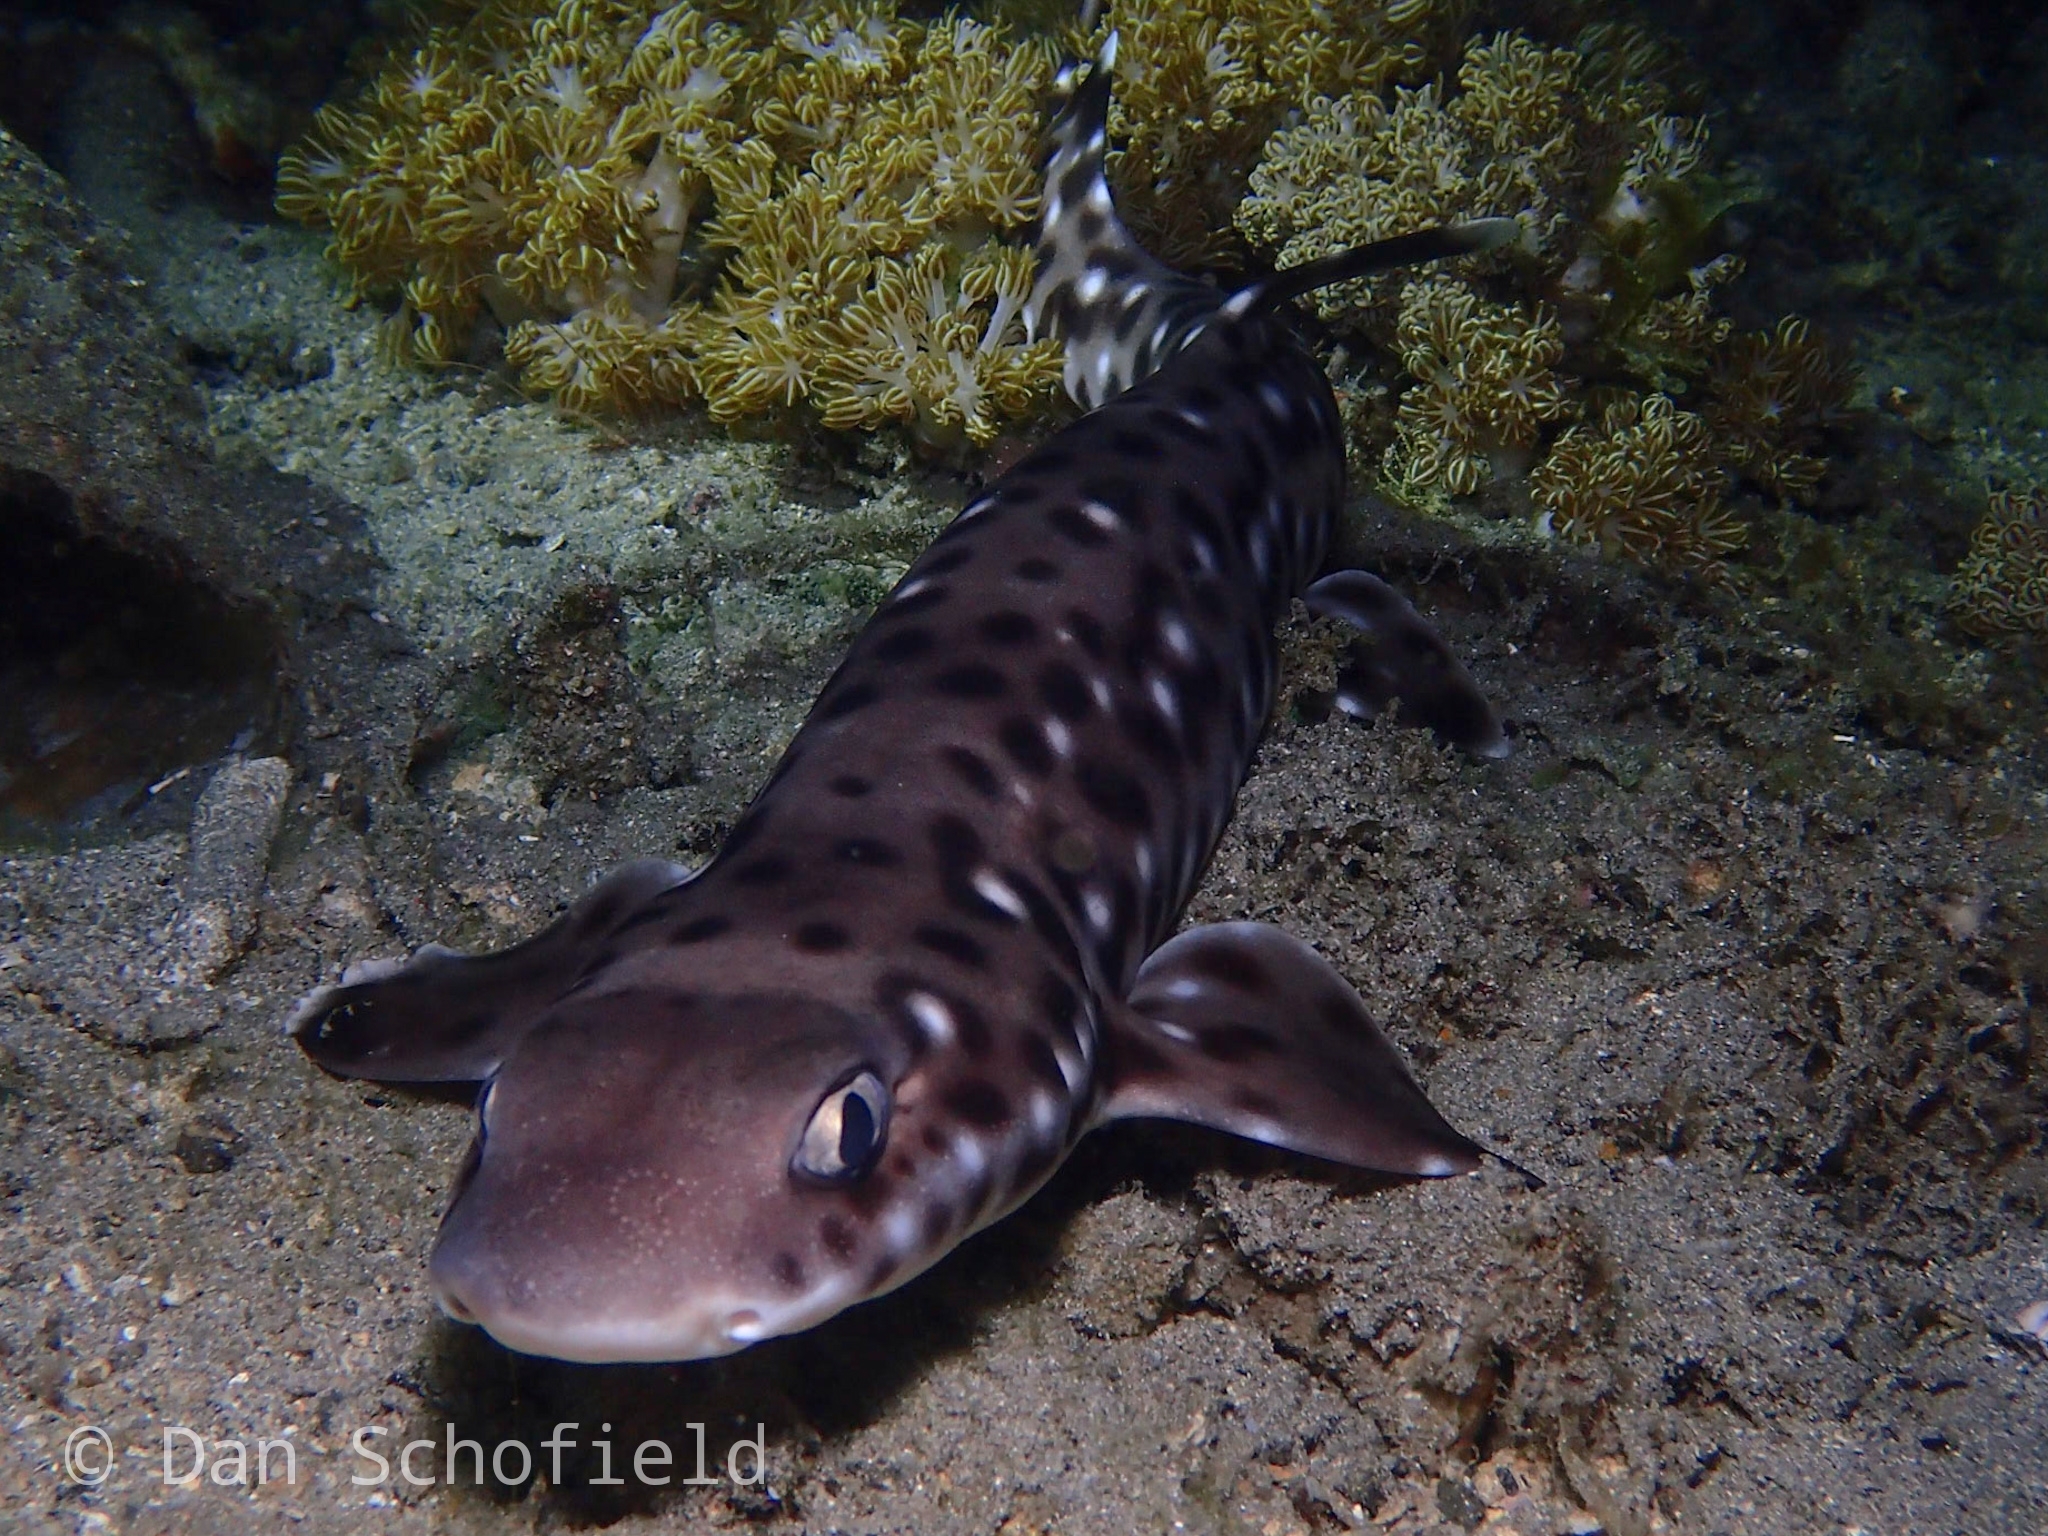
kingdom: Animalia
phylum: Chordata
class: Elasmobranchii
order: Carcharhiniformes
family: Scyliorhinidae
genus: Atelomycterus
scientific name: Atelomycterus erdmanni
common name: Spotted-belly catshark
